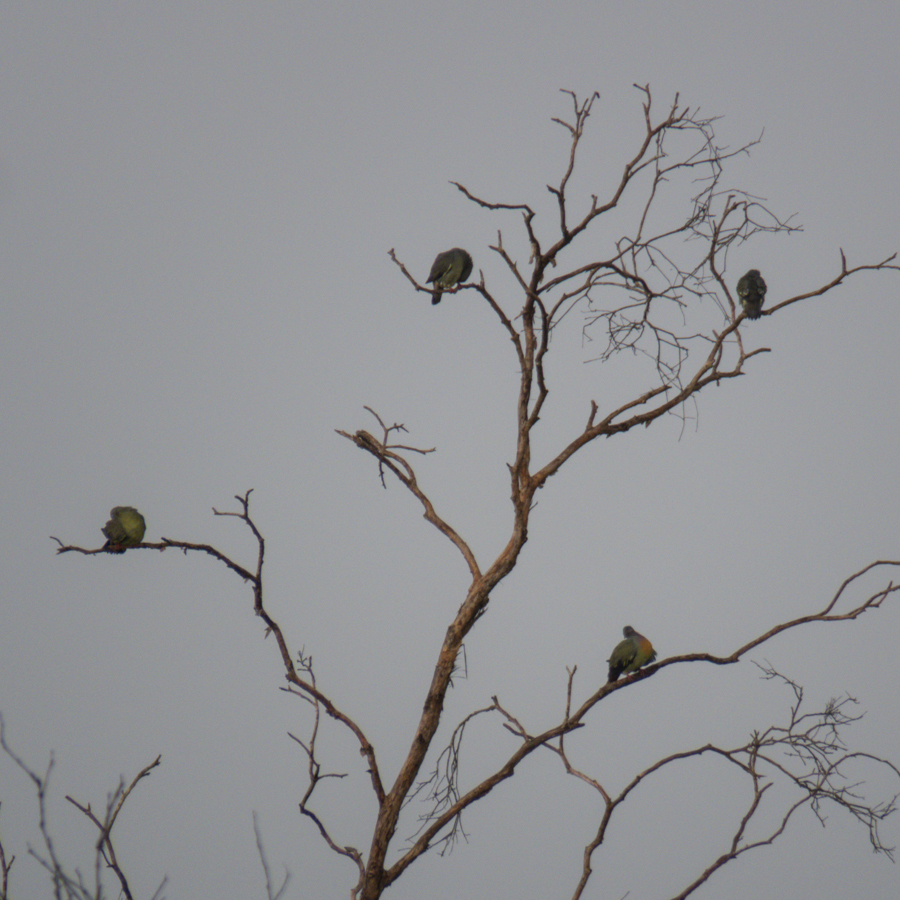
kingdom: Animalia
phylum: Chordata
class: Aves
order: Columbiformes
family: Columbidae
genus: Treron
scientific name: Treron vernans
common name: Pink-necked green pigeon
